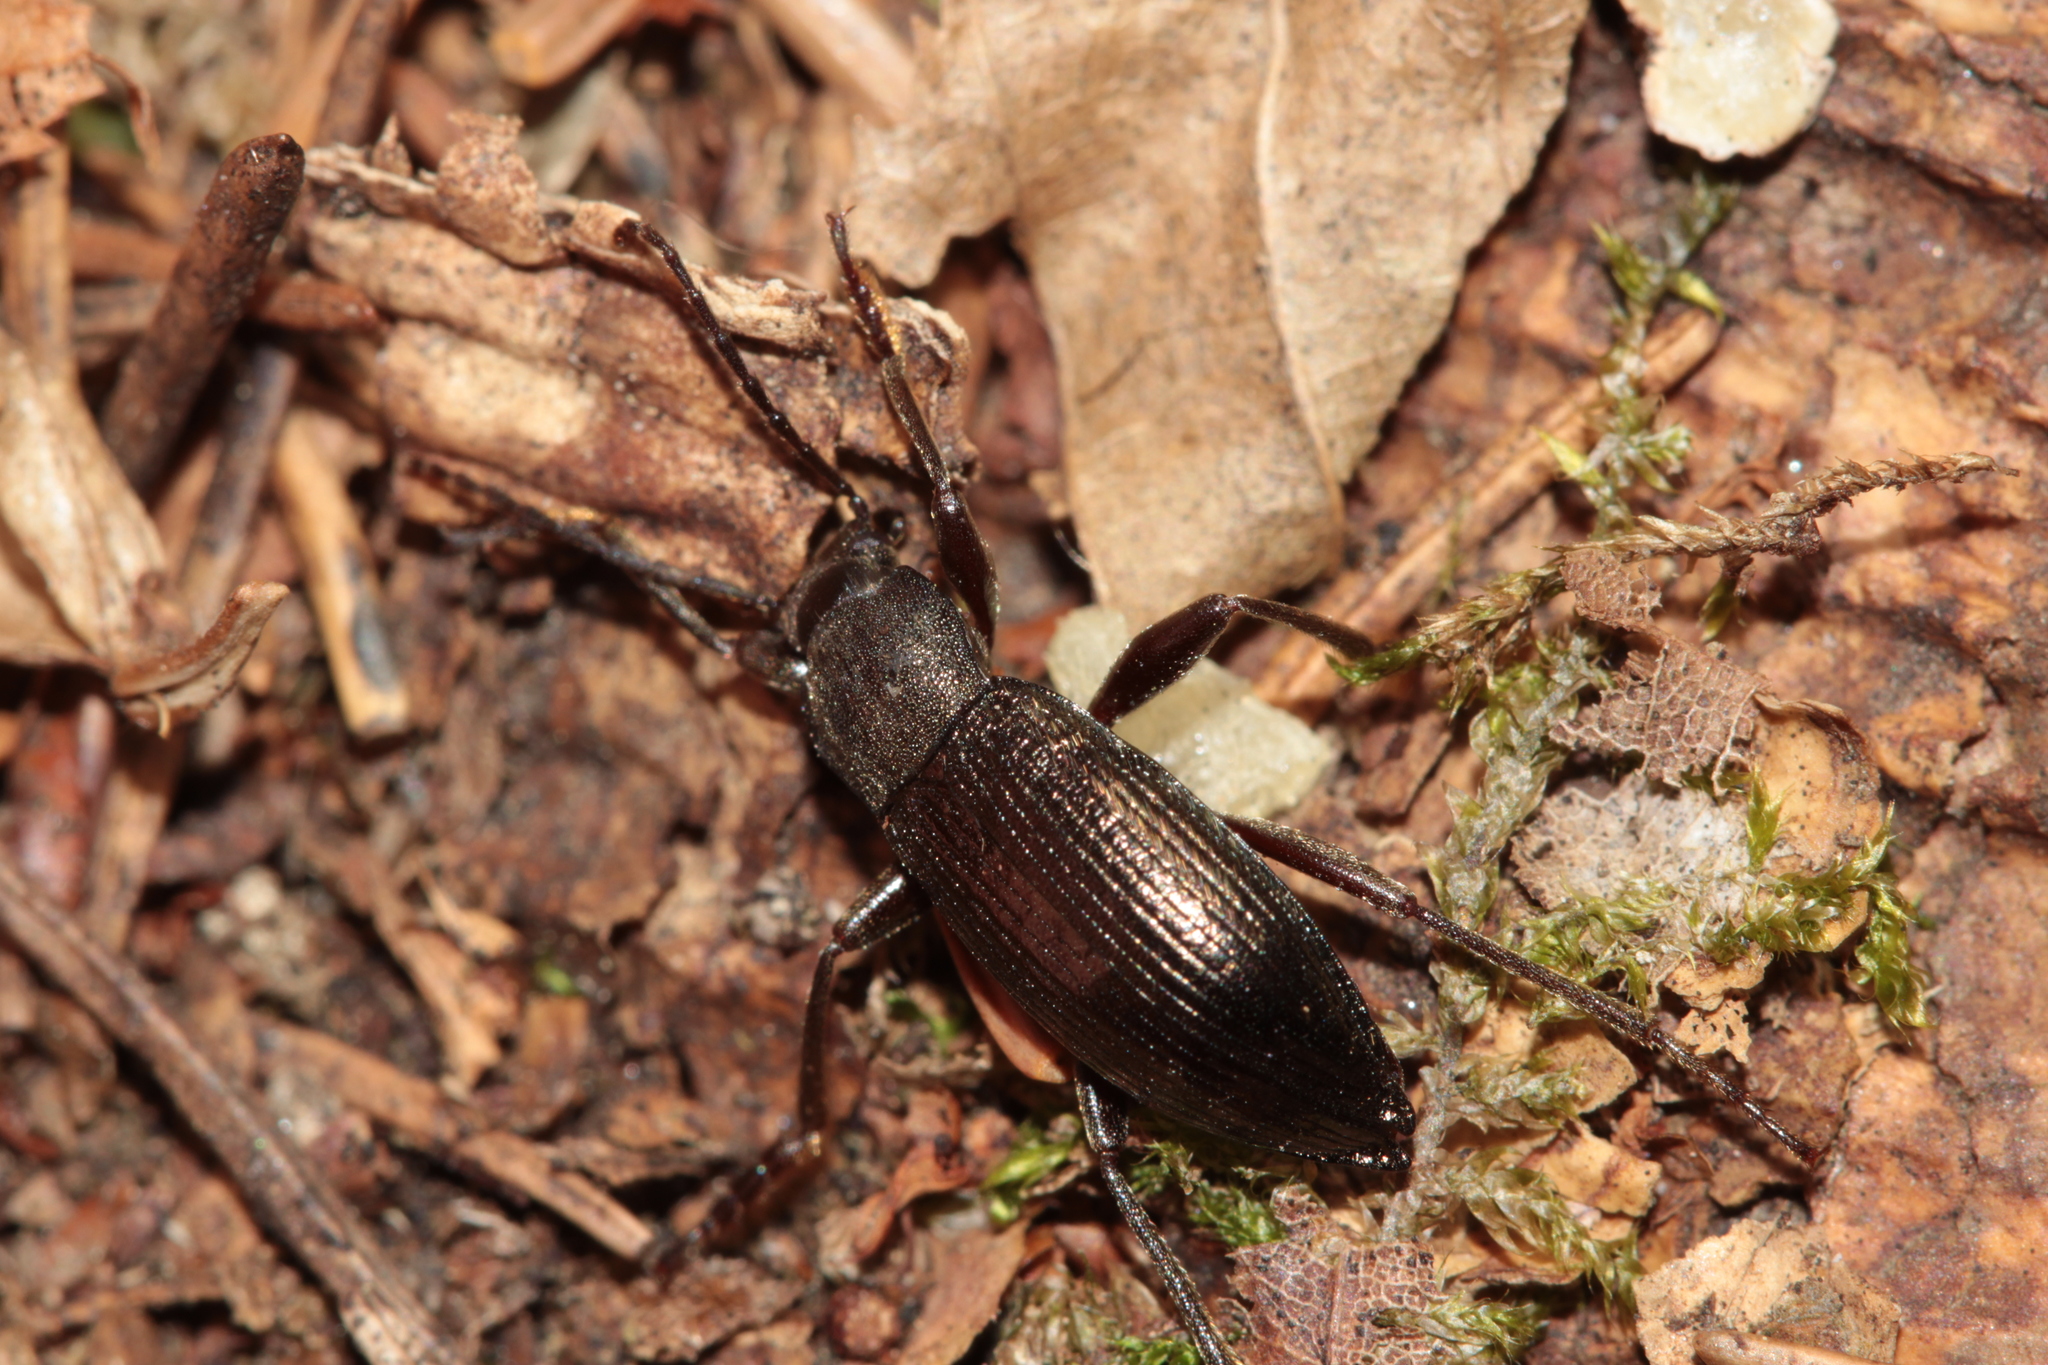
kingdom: Animalia
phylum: Arthropoda
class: Insecta
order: Coleoptera
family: Tenebrionidae
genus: Stenomax
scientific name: Stenomax aeneus
